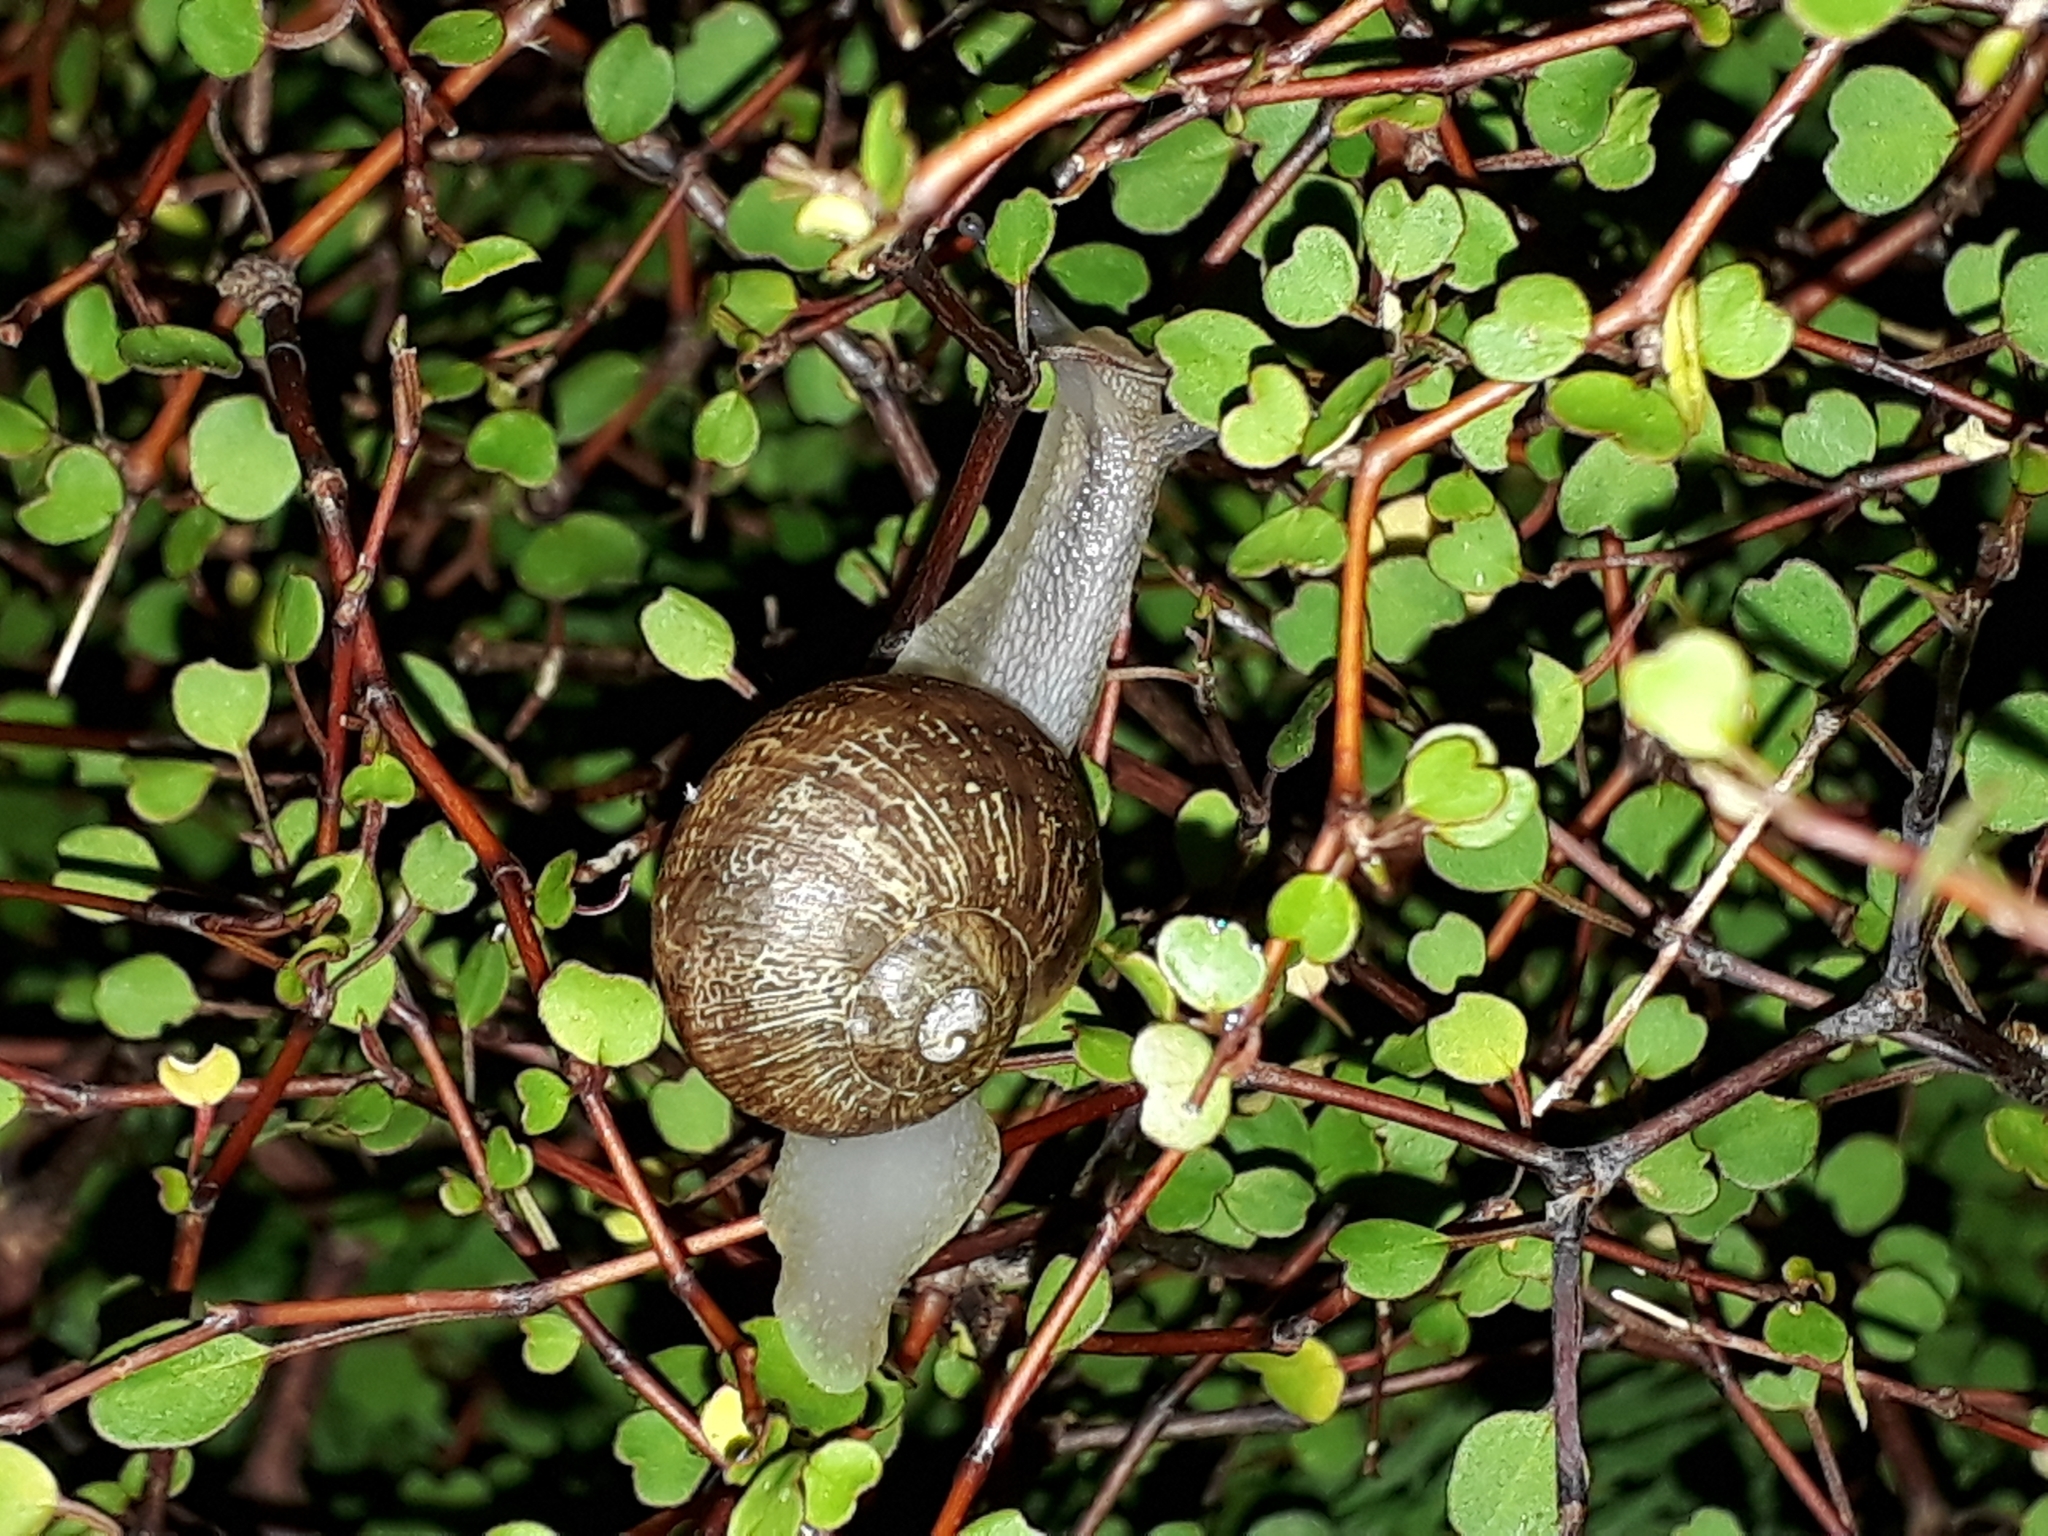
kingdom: Animalia
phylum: Mollusca
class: Gastropoda
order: Stylommatophora
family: Helicidae
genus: Cornu
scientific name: Cornu aspersum
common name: Brown garden snail
